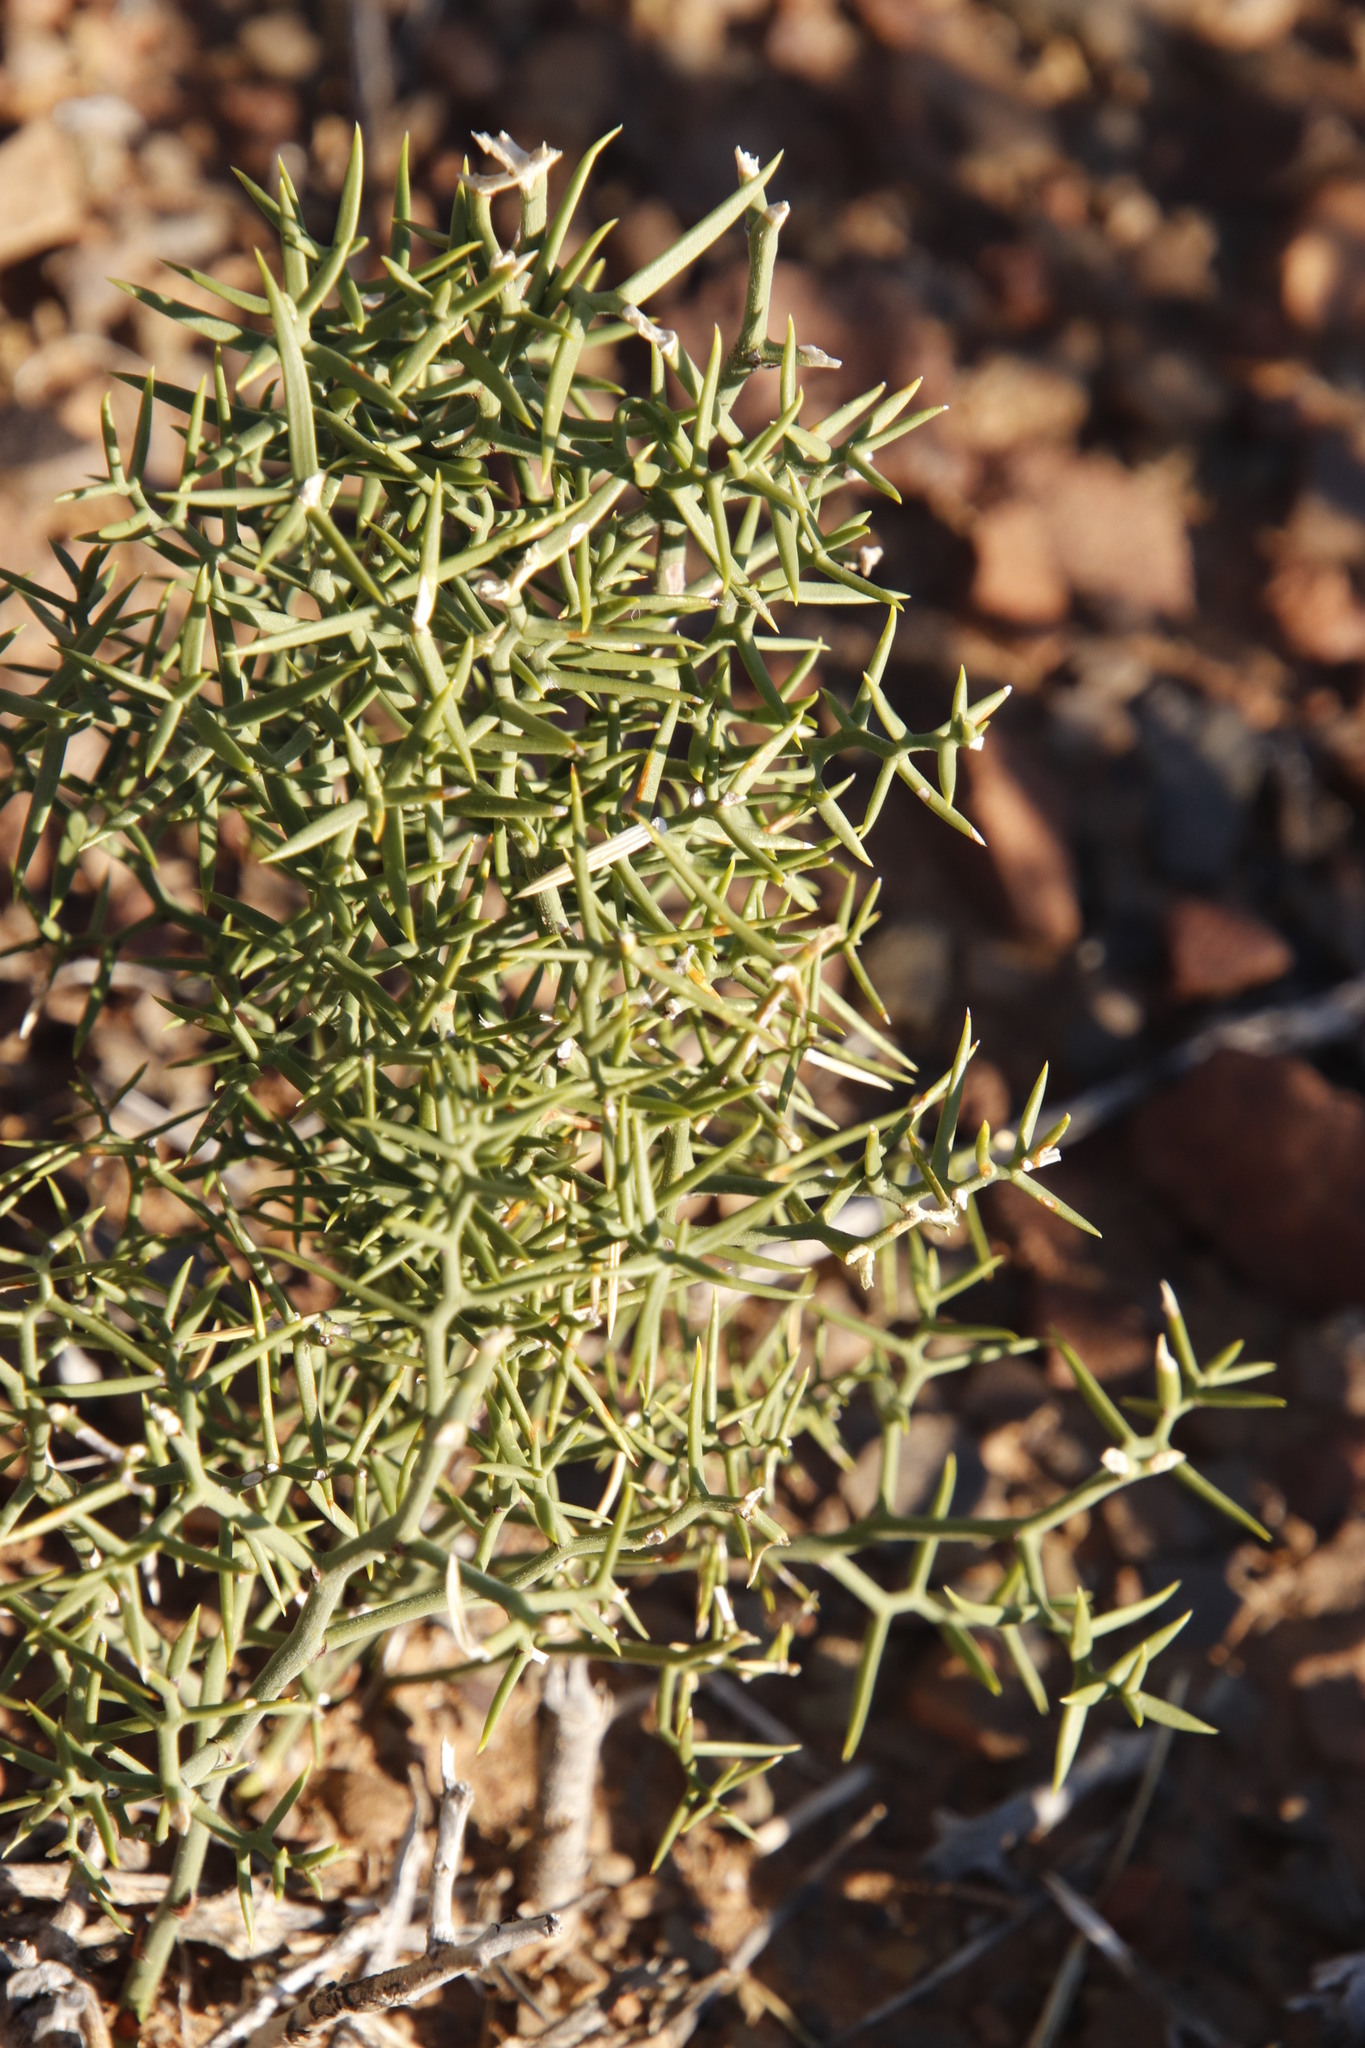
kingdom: Plantae
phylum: Tracheophyta
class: Liliopsida
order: Asparagales
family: Asparagaceae
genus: Asparagus
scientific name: Asparagus striatus
